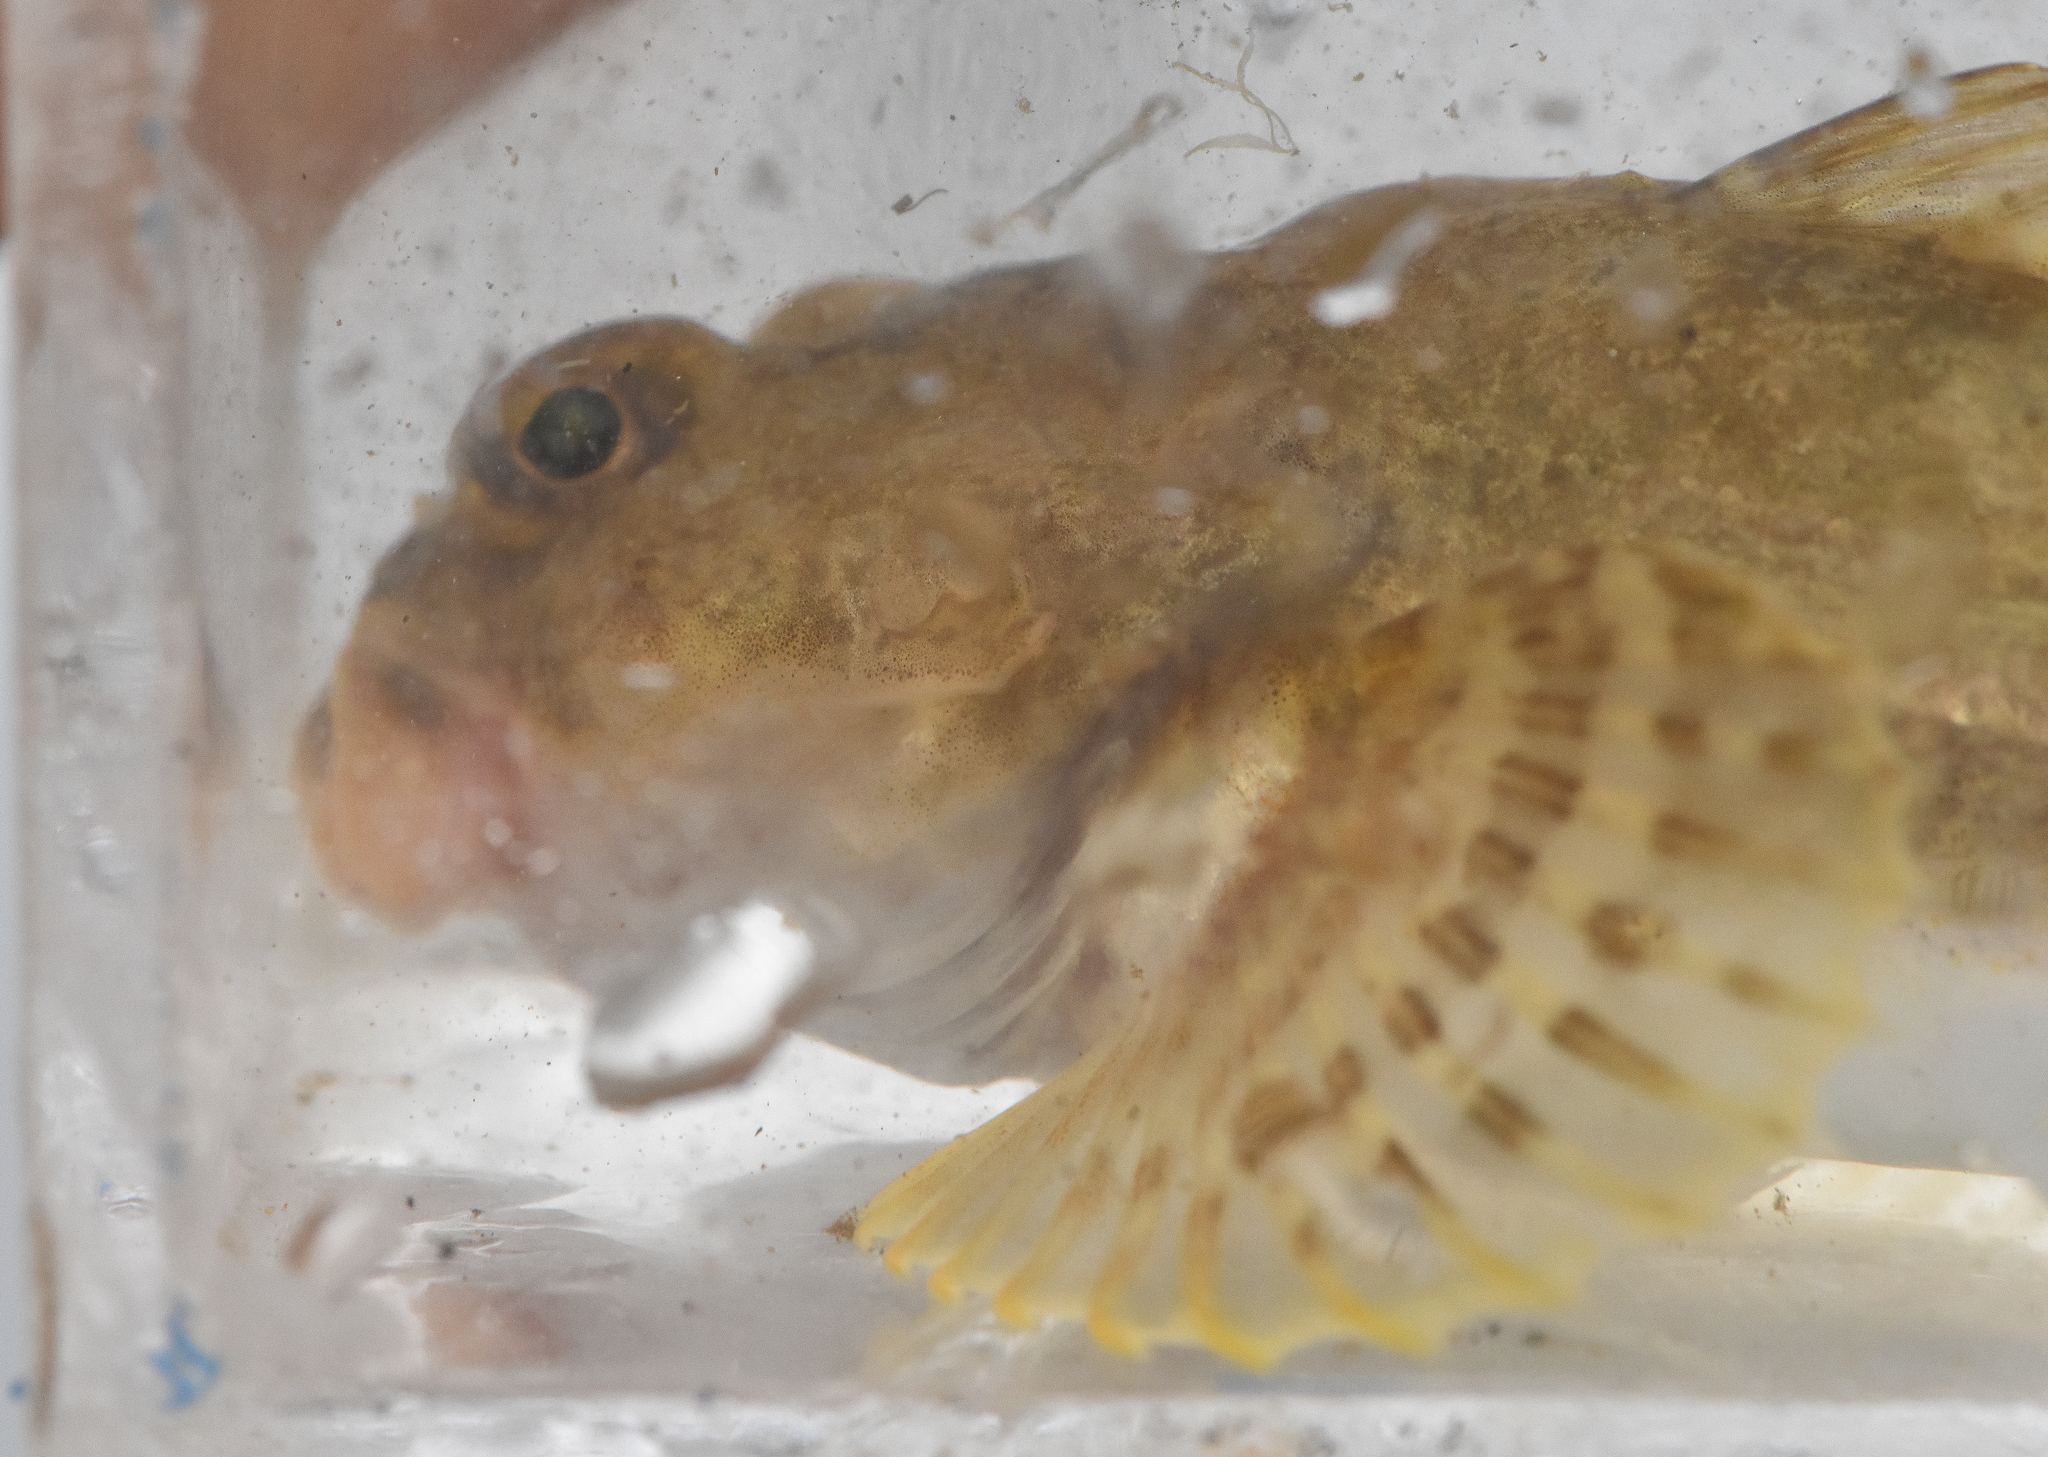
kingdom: Animalia
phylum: Chordata
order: Scorpaeniformes
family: Cottidae
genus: Leptocottus
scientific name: Leptocottus armatus
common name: Pacific staghorn sculpin
